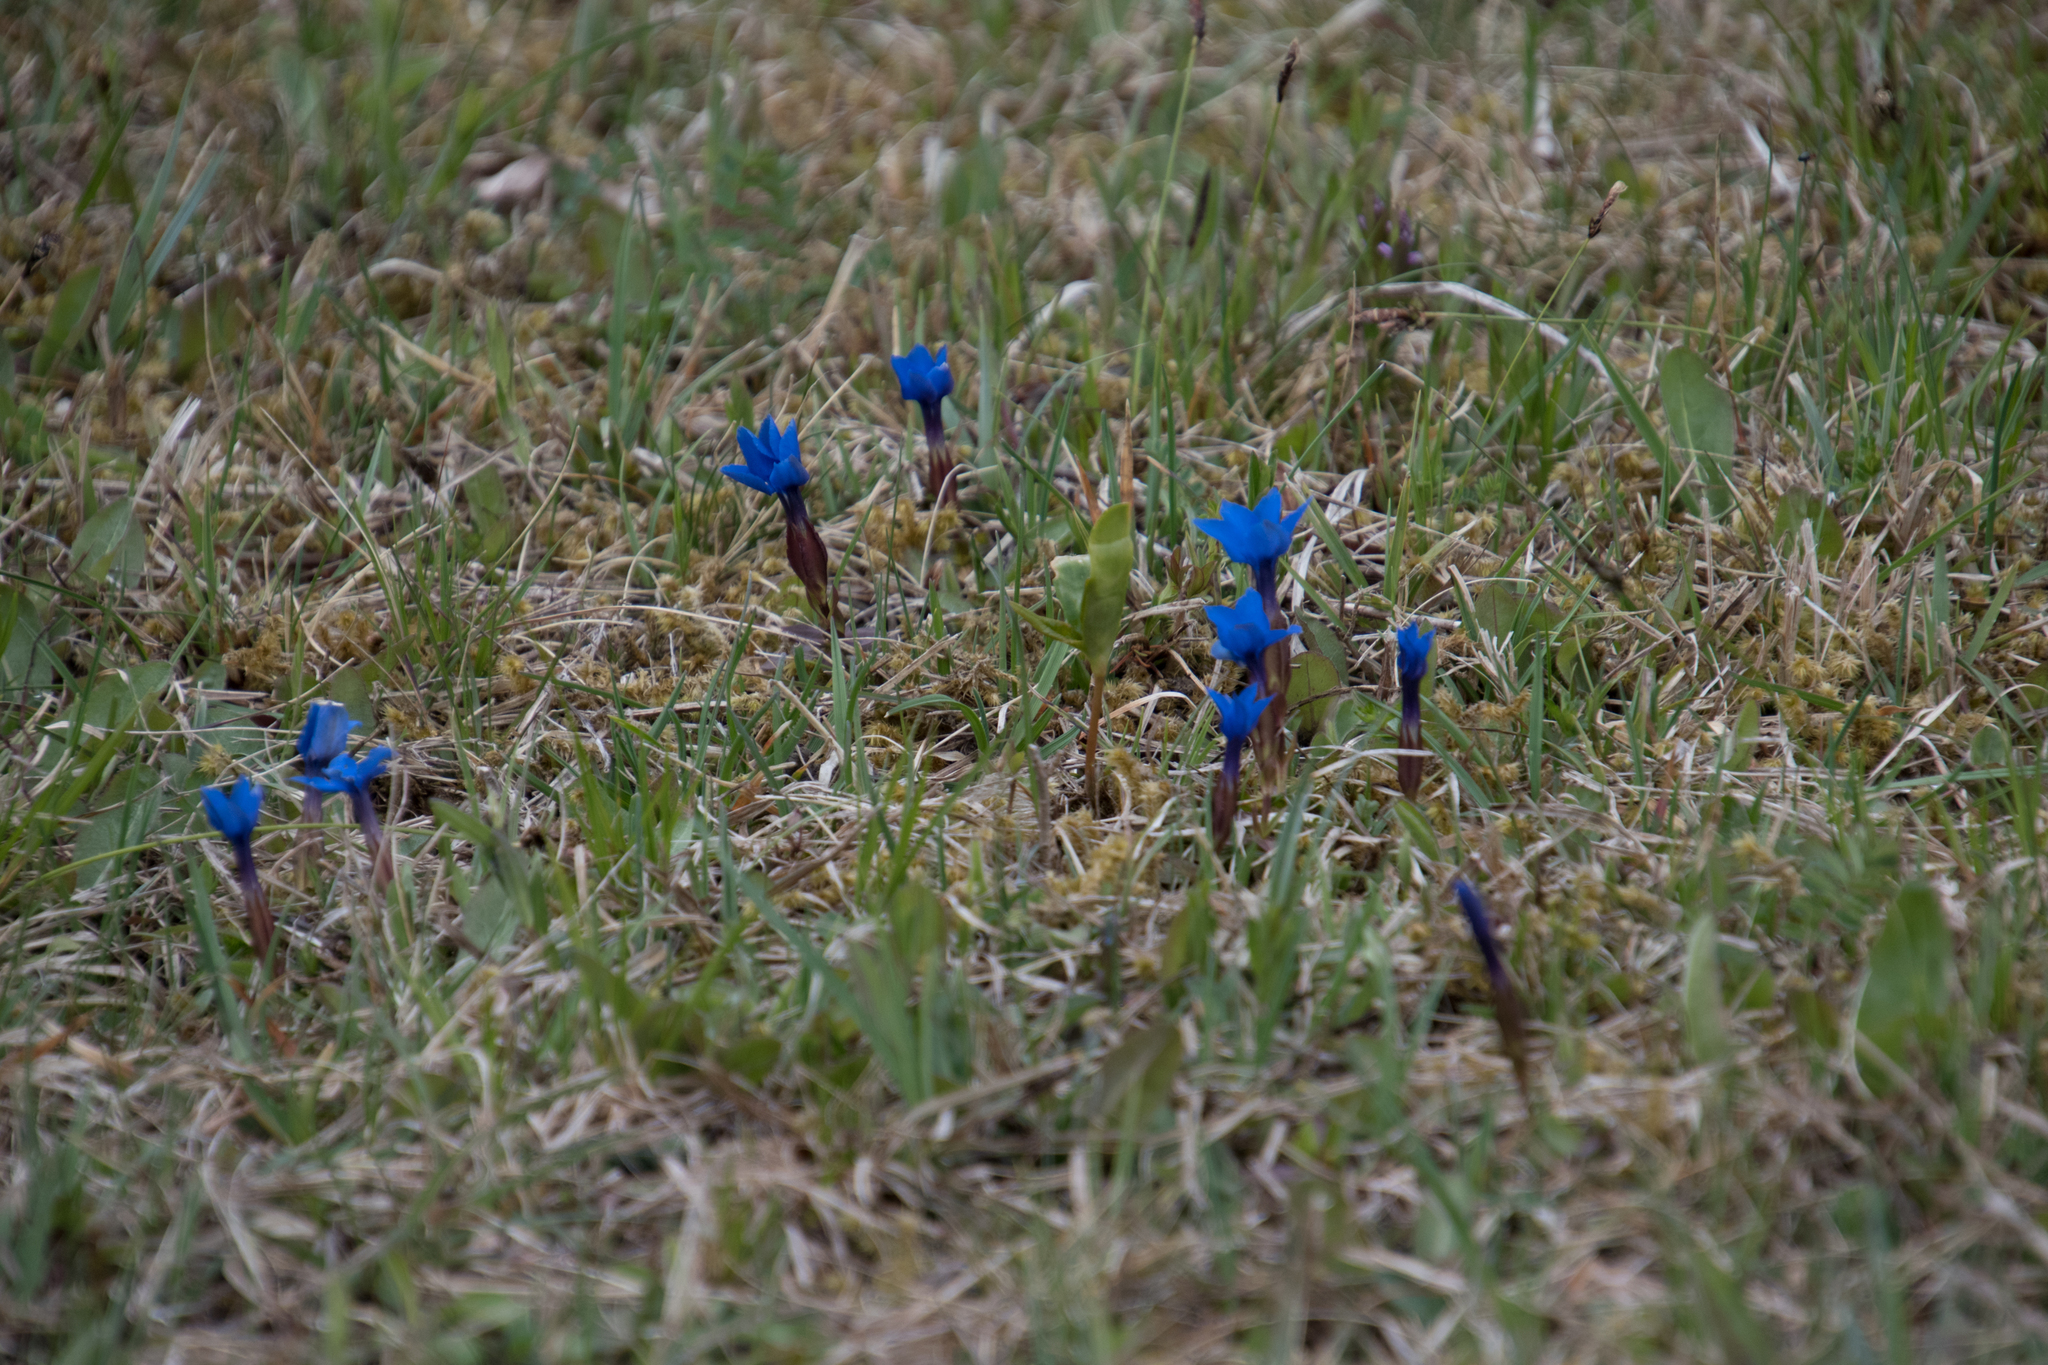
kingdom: Plantae
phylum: Tracheophyta
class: Magnoliopsida
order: Gentianales
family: Gentianaceae
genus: Gentiana
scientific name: Gentiana verna
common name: Spring gentian
